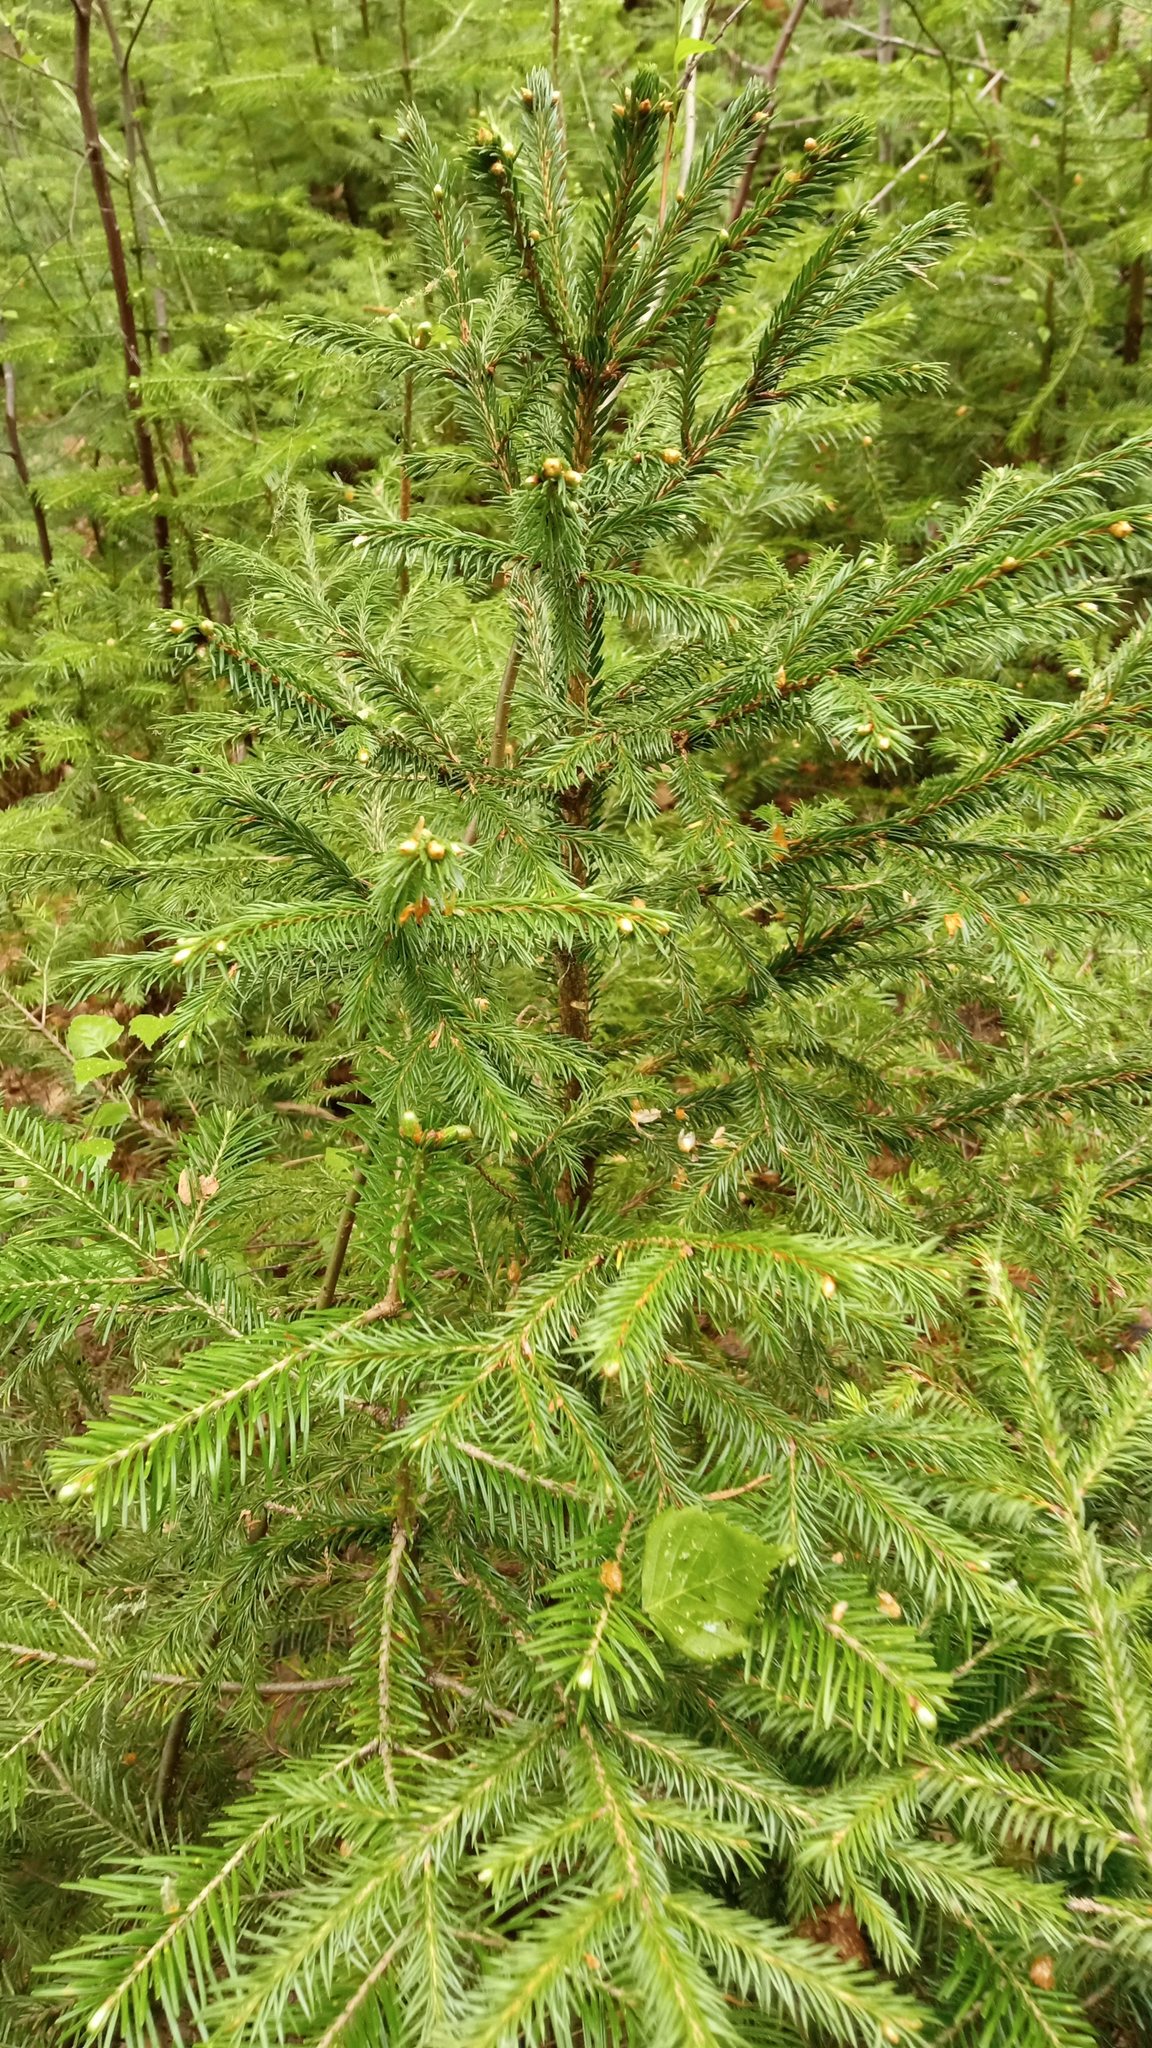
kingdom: Plantae
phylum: Tracheophyta
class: Pinopsida
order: Pinales
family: Pinaceae
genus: Picea
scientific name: Picea obovata
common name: Siberian spruce
